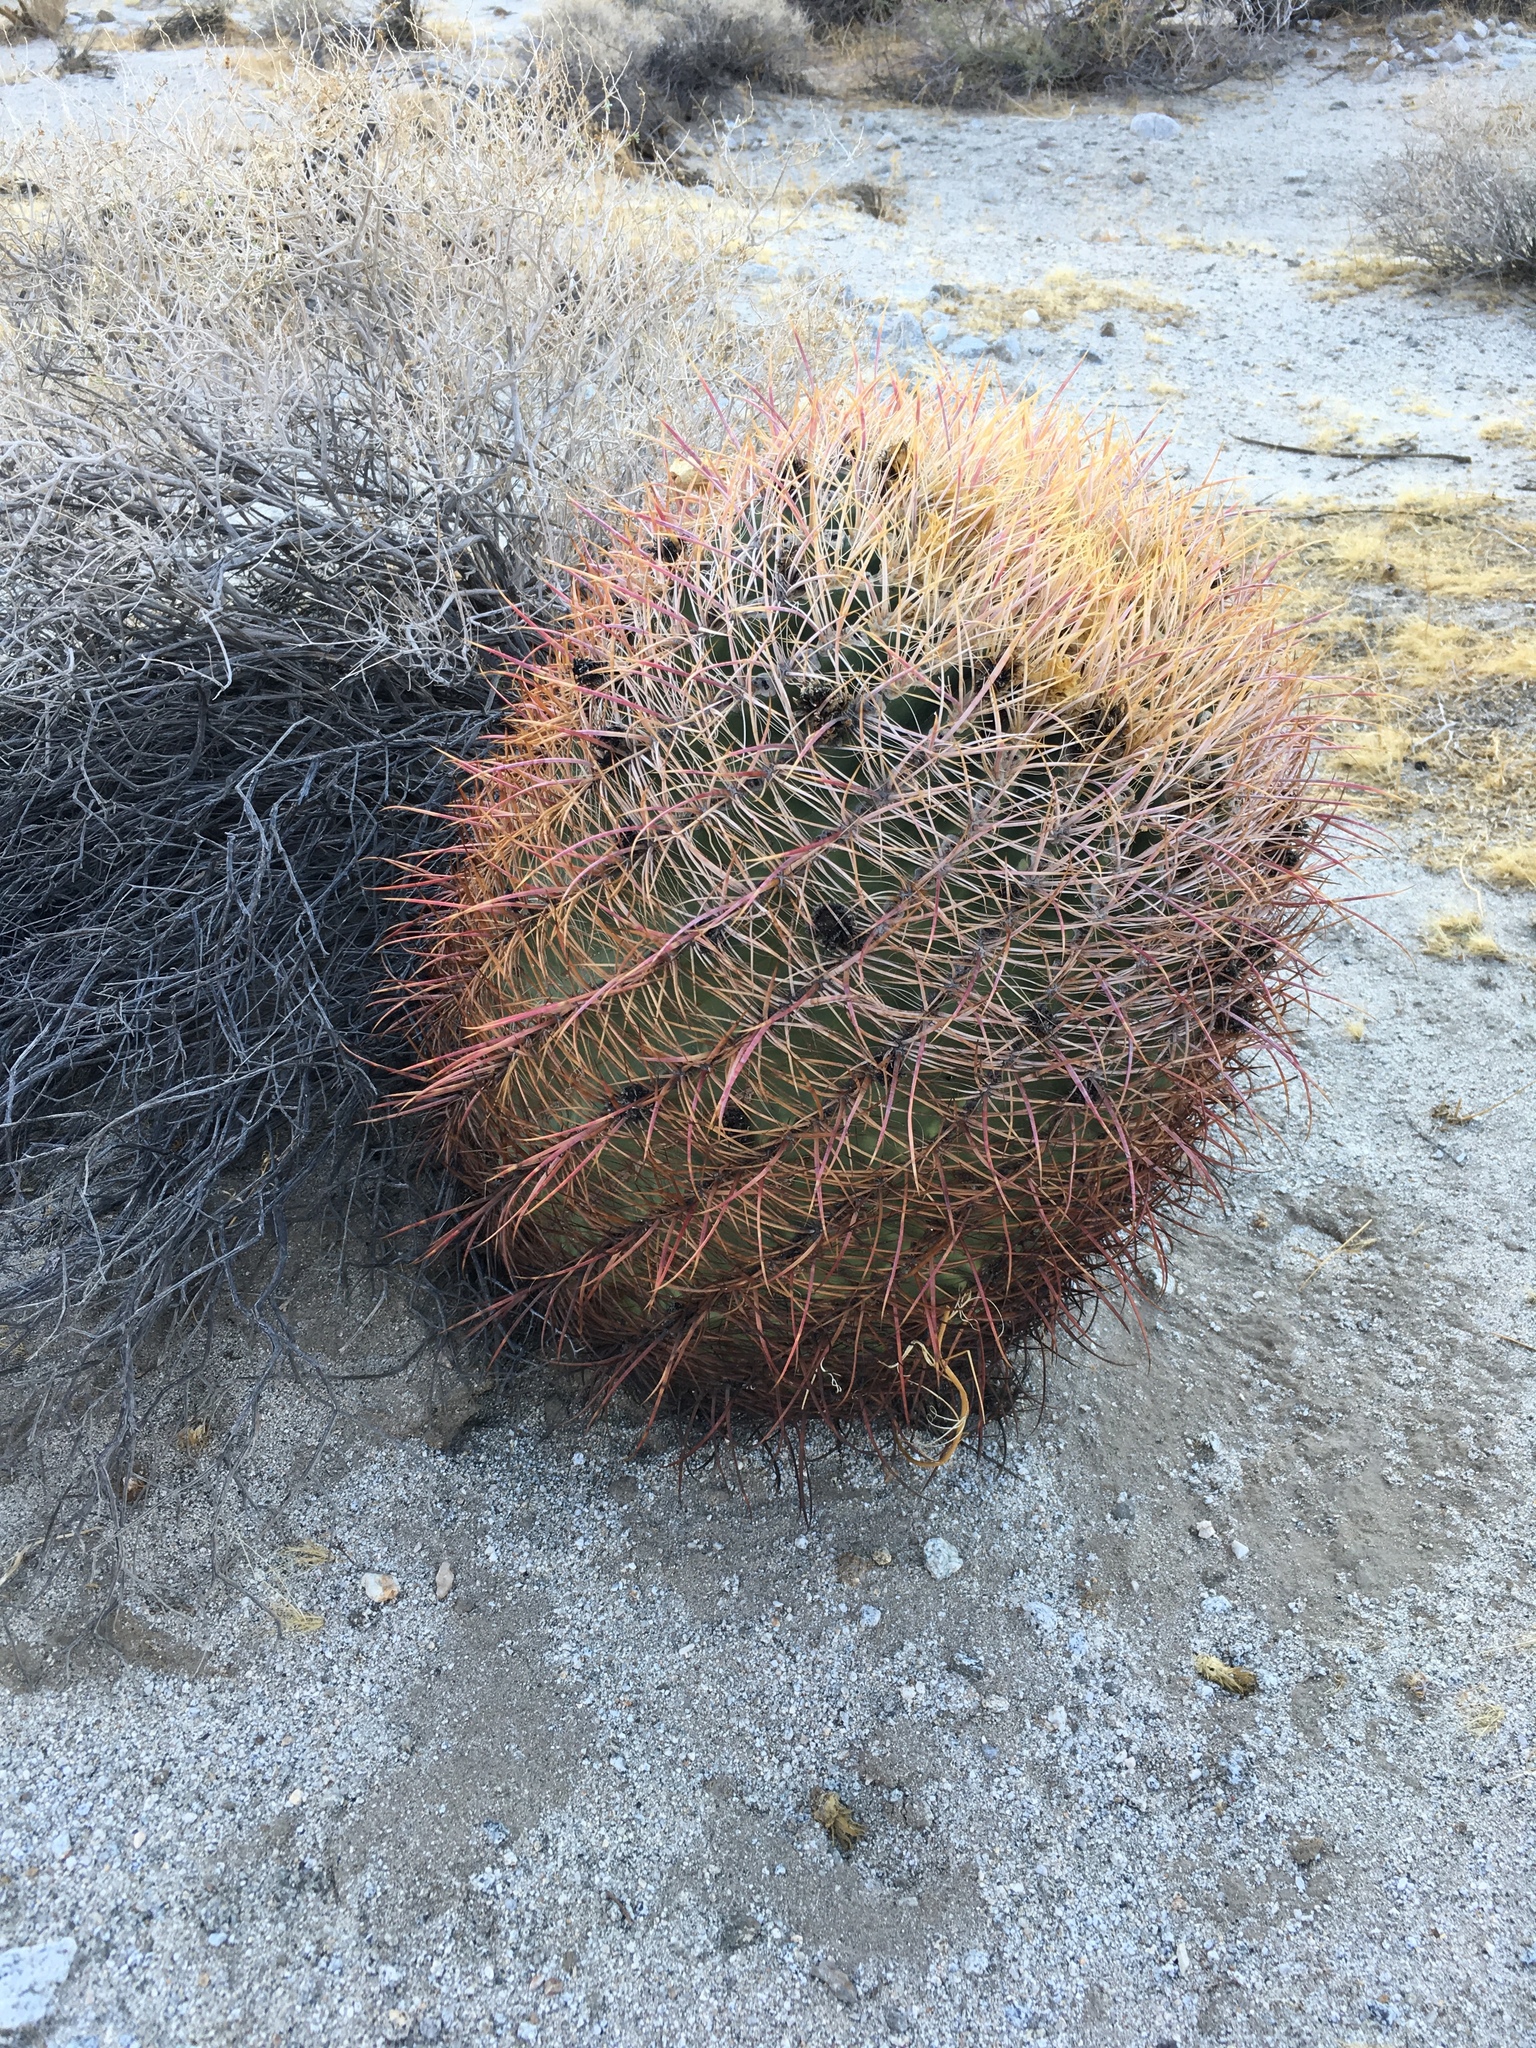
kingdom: Plantae
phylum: Tracheophyta
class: Magnoliopsida
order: Caryophyllales
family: Cactaceae
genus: Ferocactus
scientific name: Ferocactus cylindraceus
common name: California barrel cactus
